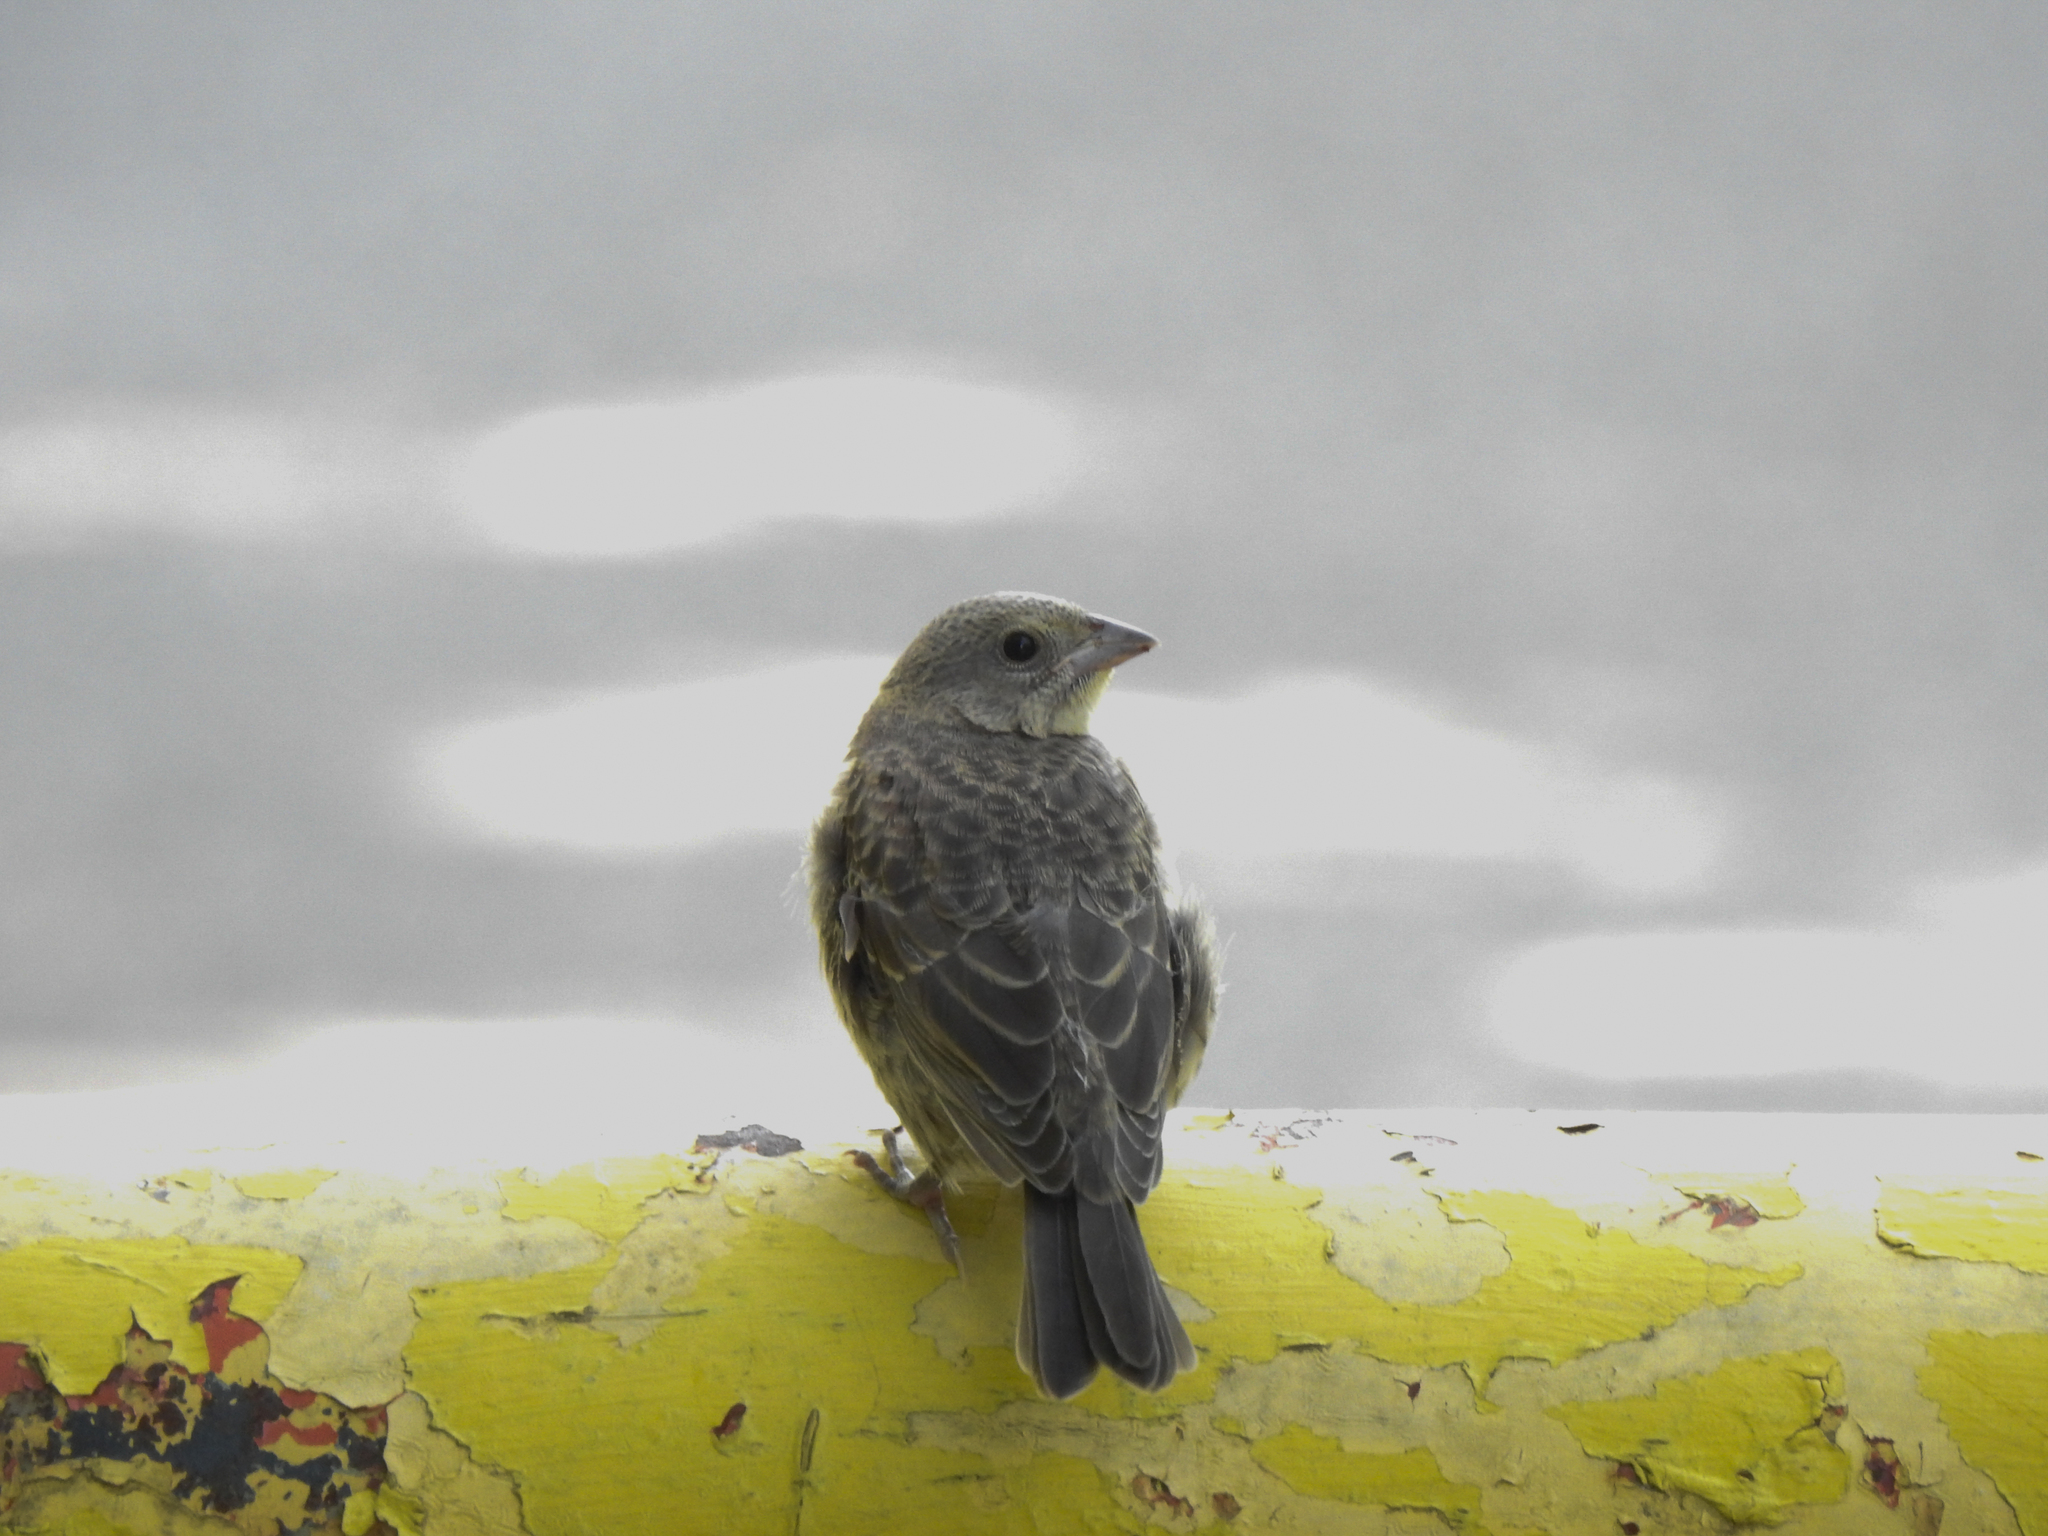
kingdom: Animalia
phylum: Chordata
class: Aves
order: Passeriformes
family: Icteridae
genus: Molothrus
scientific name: Molothrus ater
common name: Brown-headed cowbird
